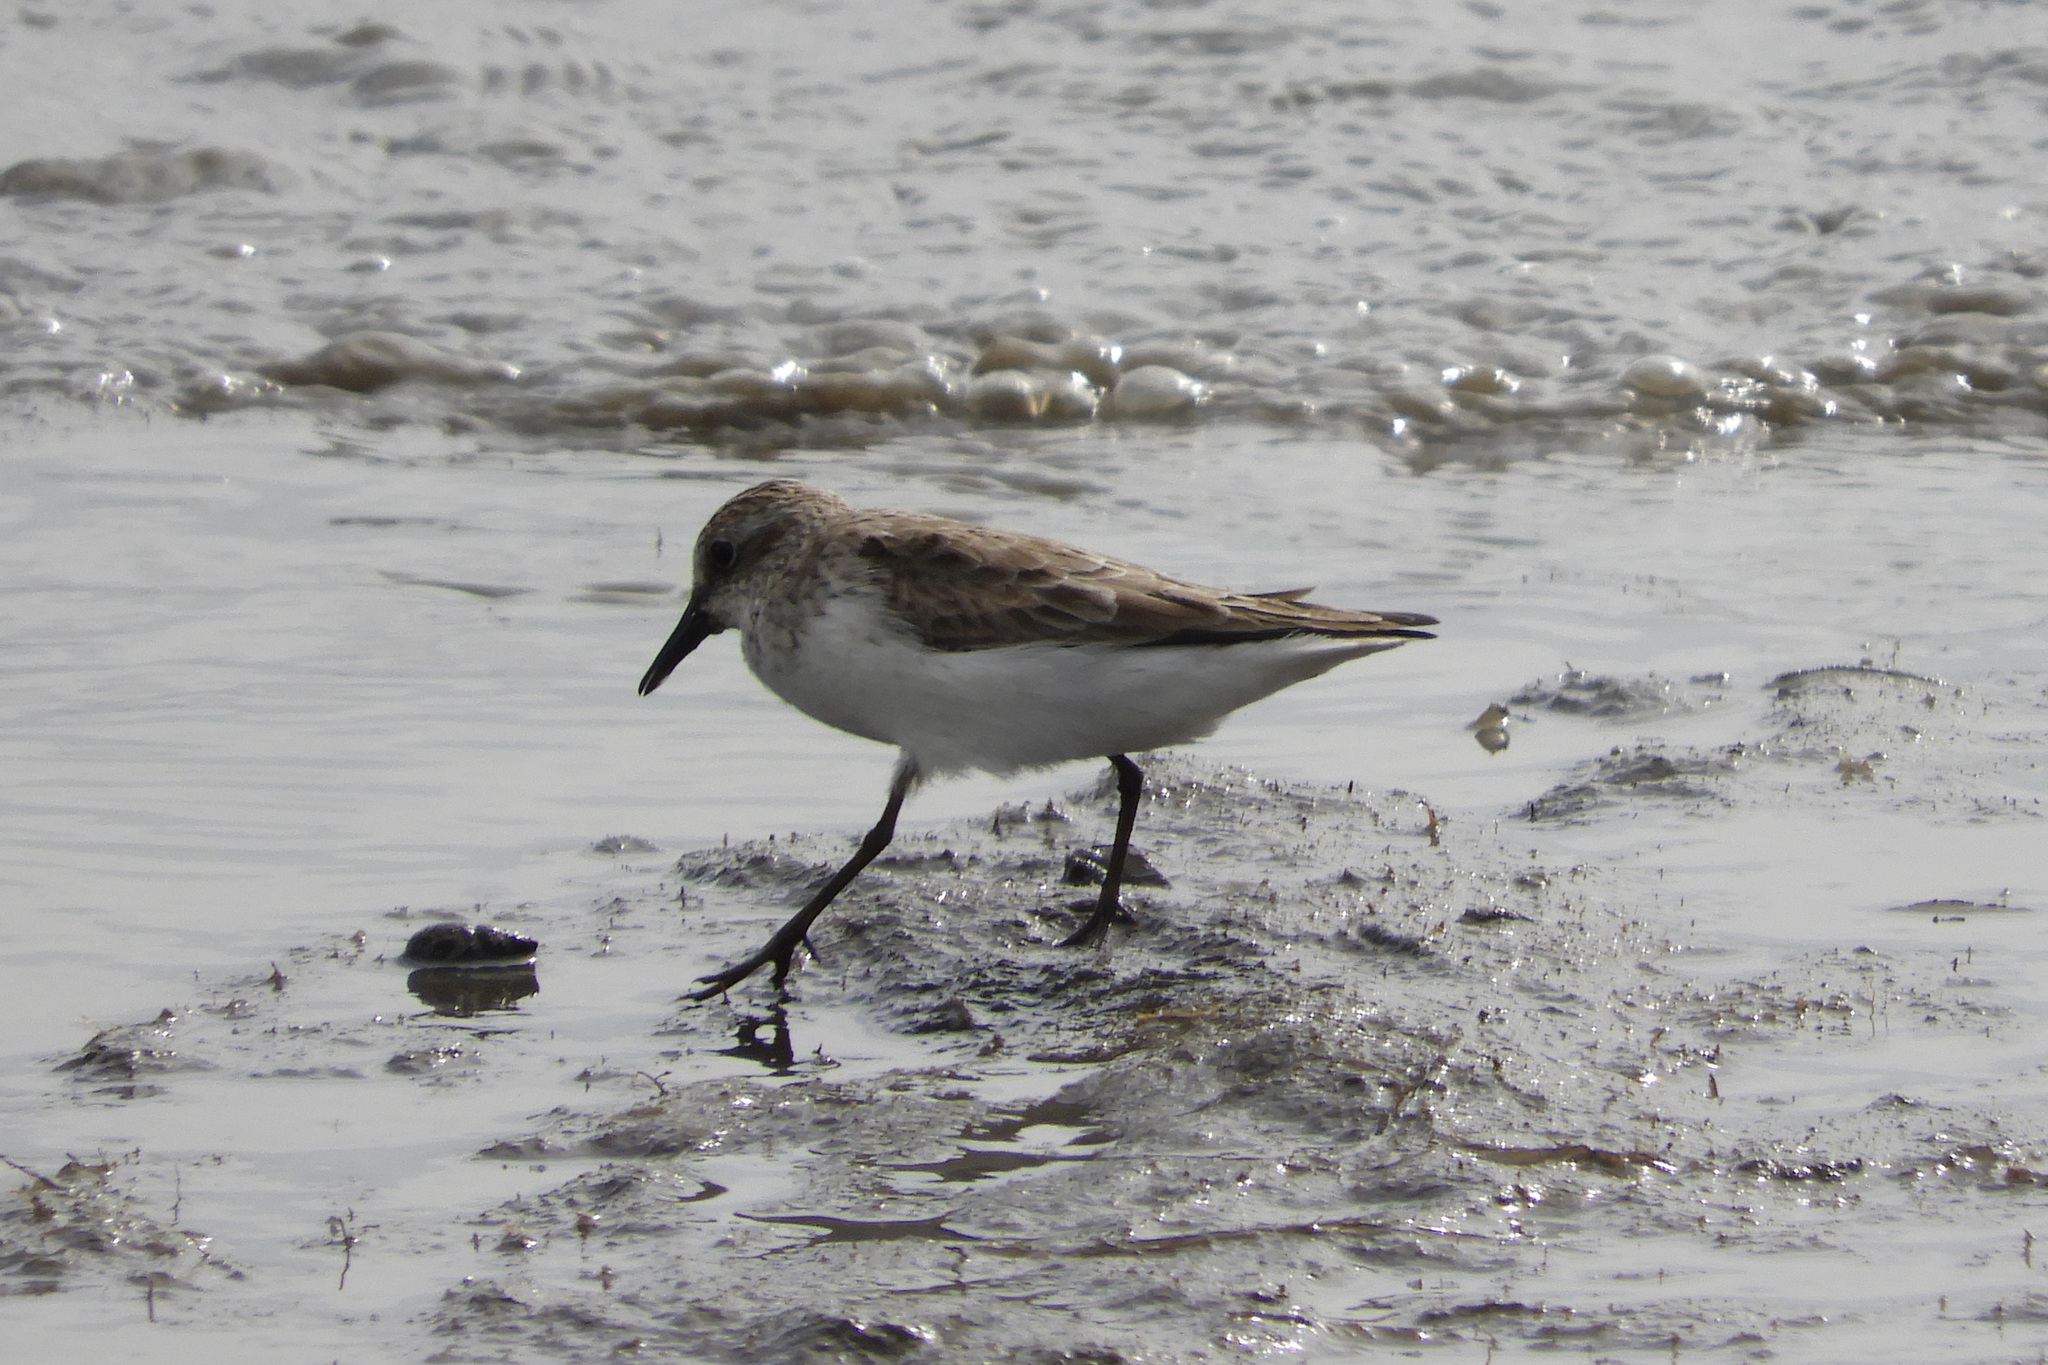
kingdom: Animalia
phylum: Chordata
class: Aves
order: Charadriiformes
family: Scolopacidae
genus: Calidris
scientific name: Calidris pusilla
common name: Semipalmated sandpiper
